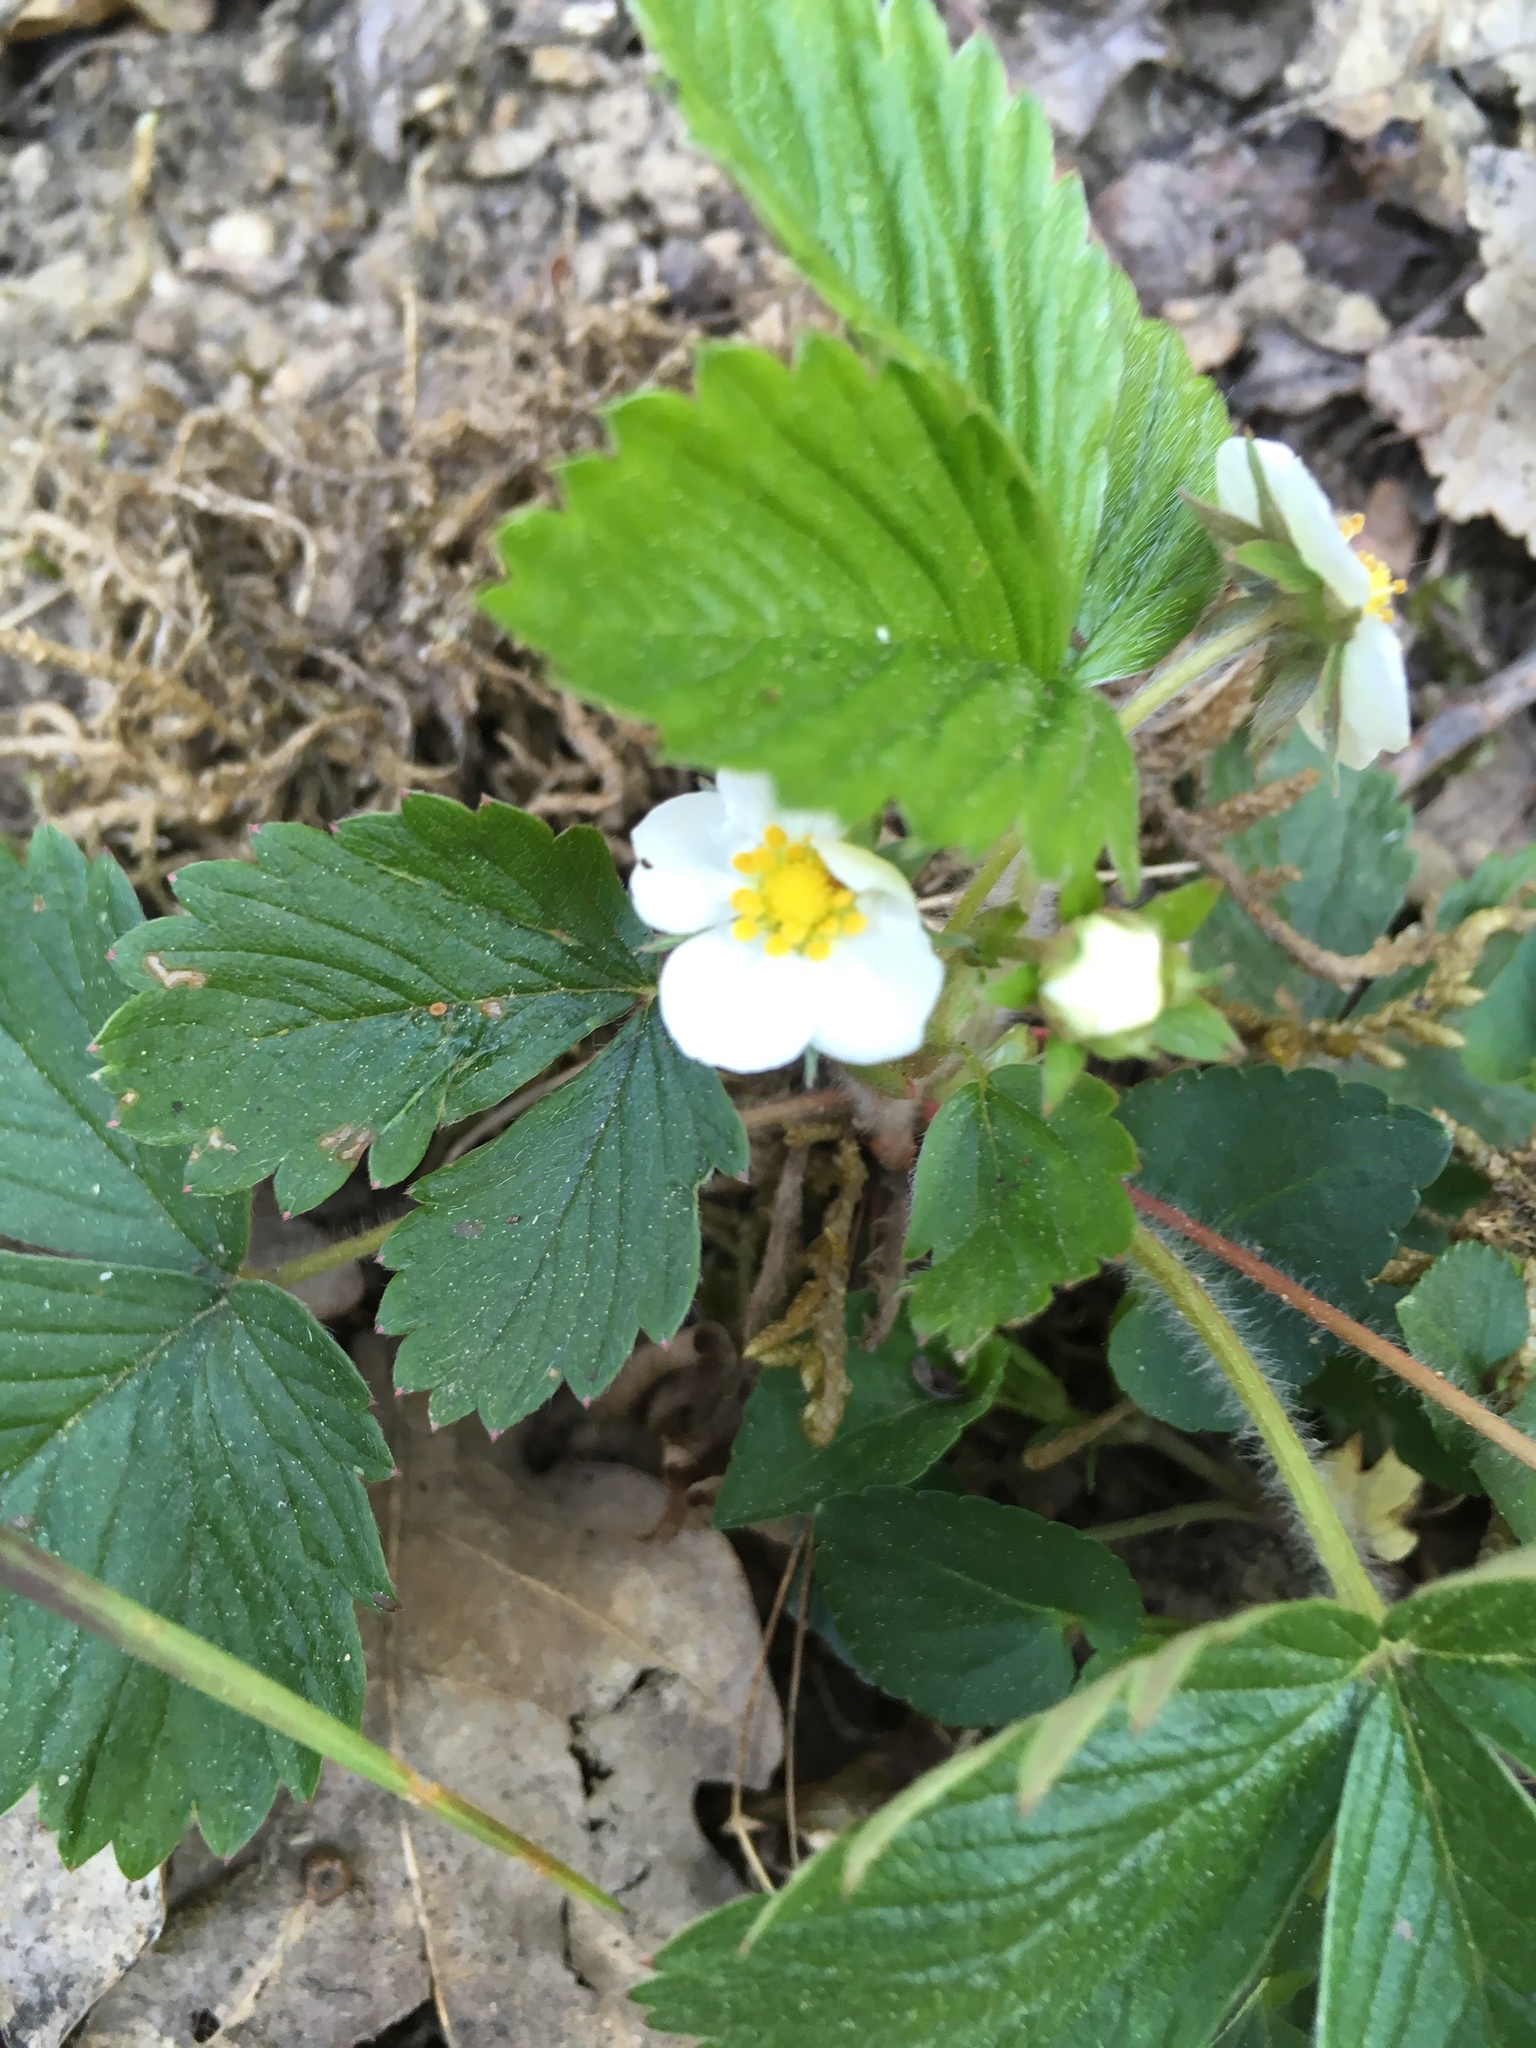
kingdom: Plantae
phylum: Tracheophyta
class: Magnoliopsida
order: Rosales
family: Rosaceae
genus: Fragaria
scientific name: Fragaria vesca
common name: Wild strawberry
